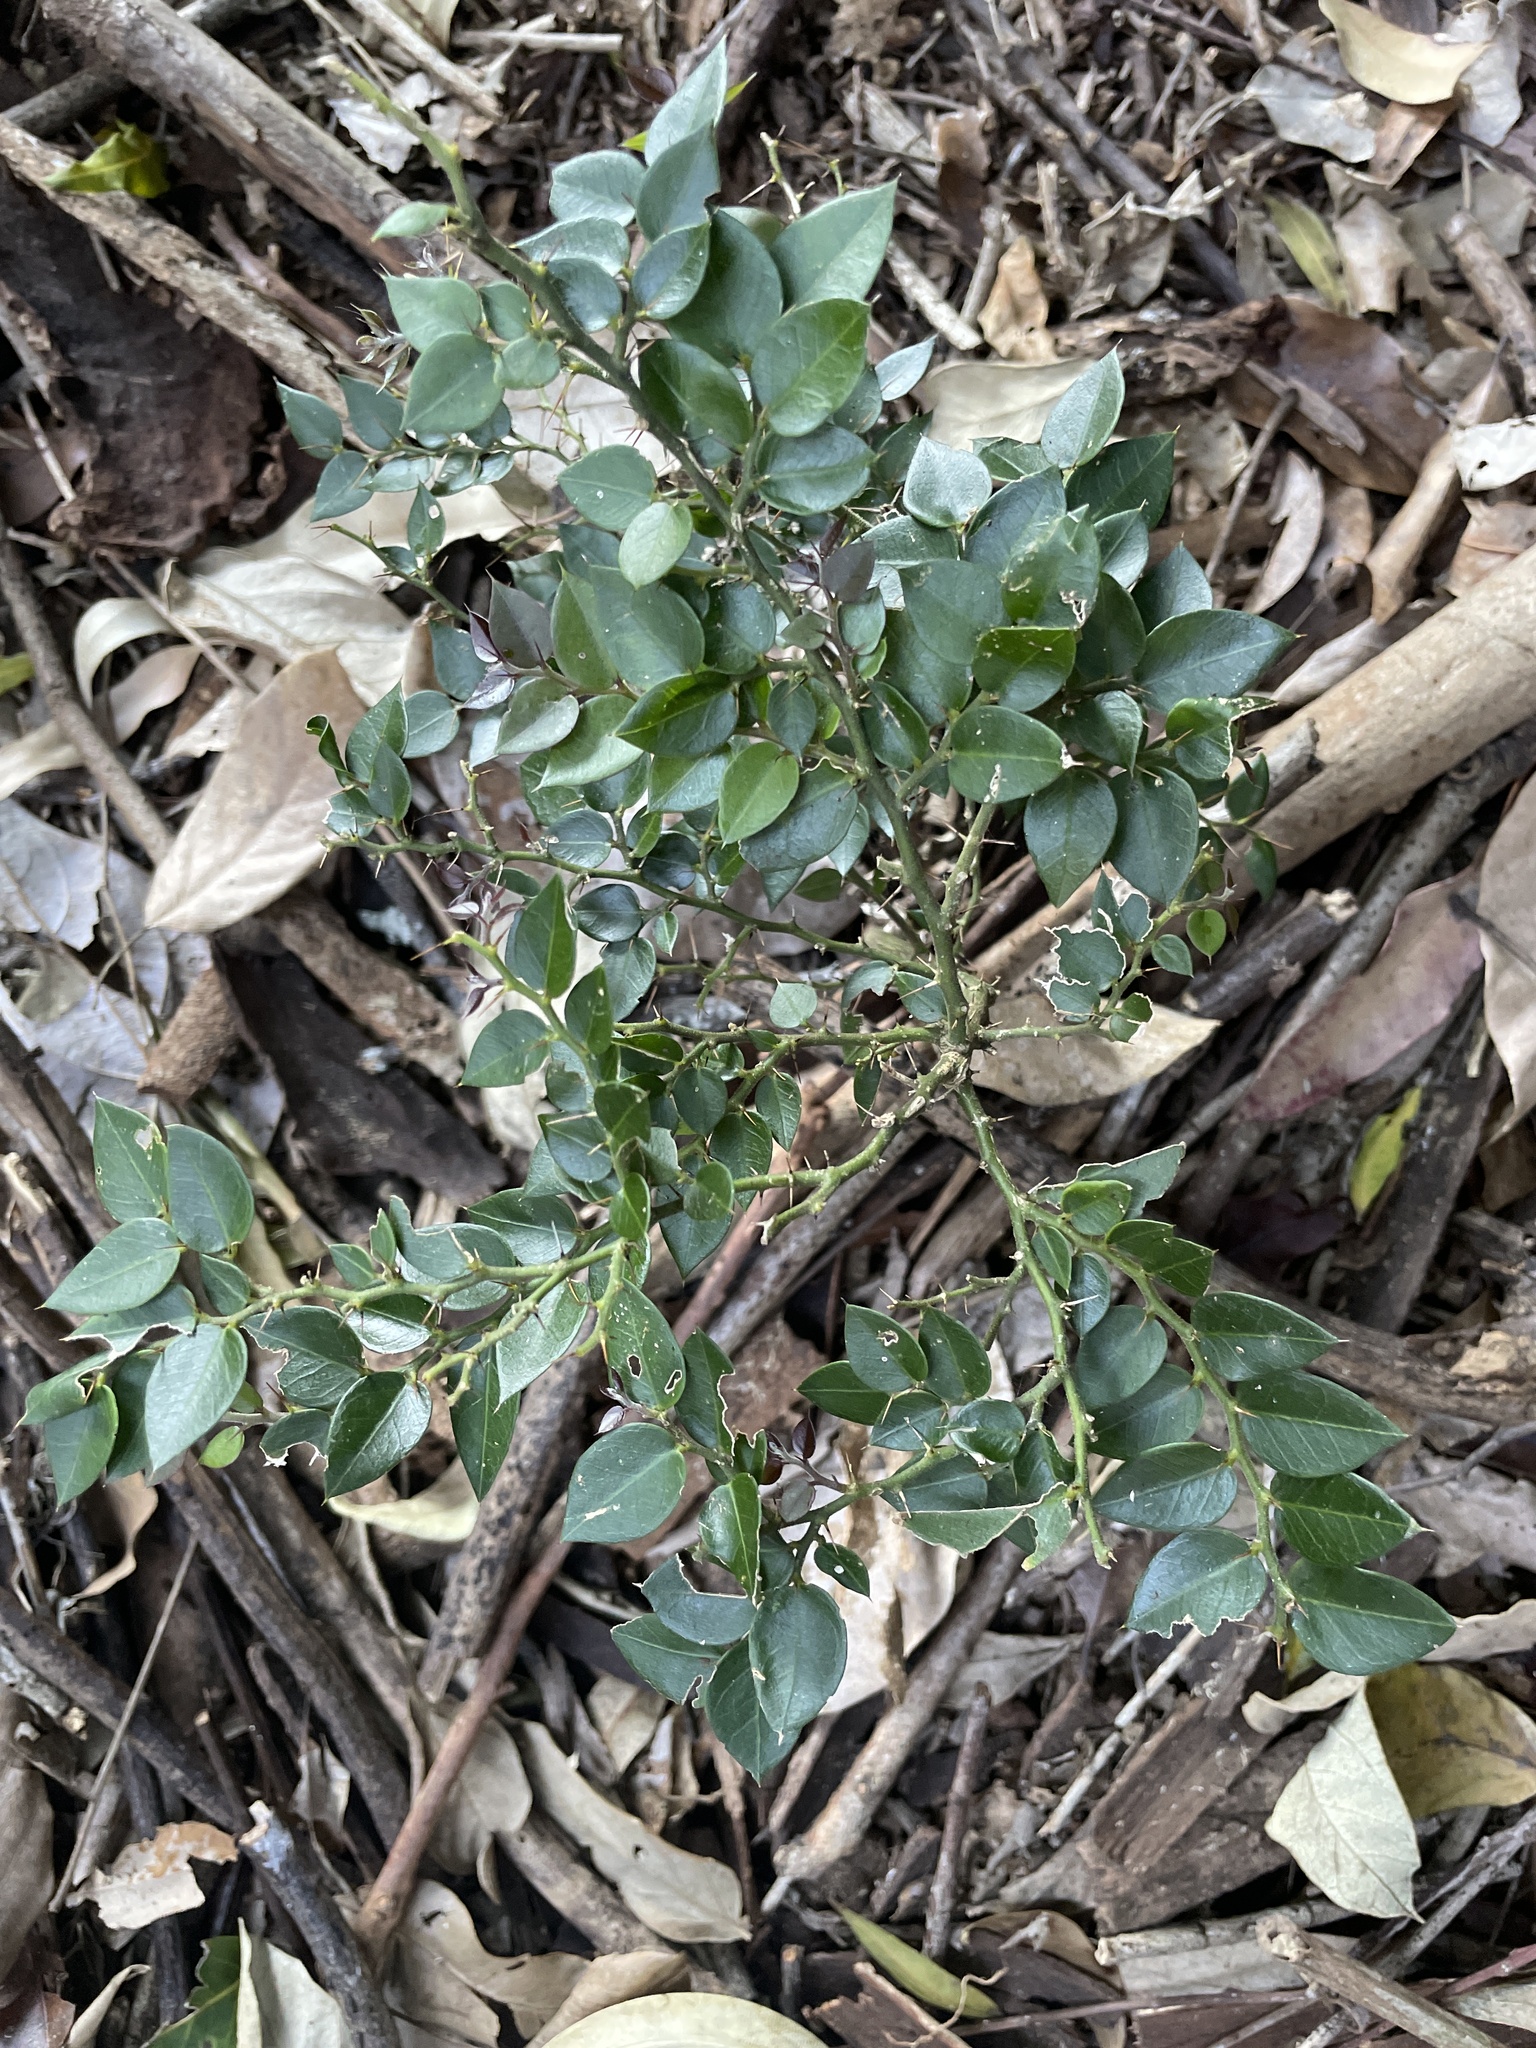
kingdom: Plantae
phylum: Tracheophyta
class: Magnoliopsida
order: Brassicales
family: Capparaceae
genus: Capparis
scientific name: Capparis arborea
